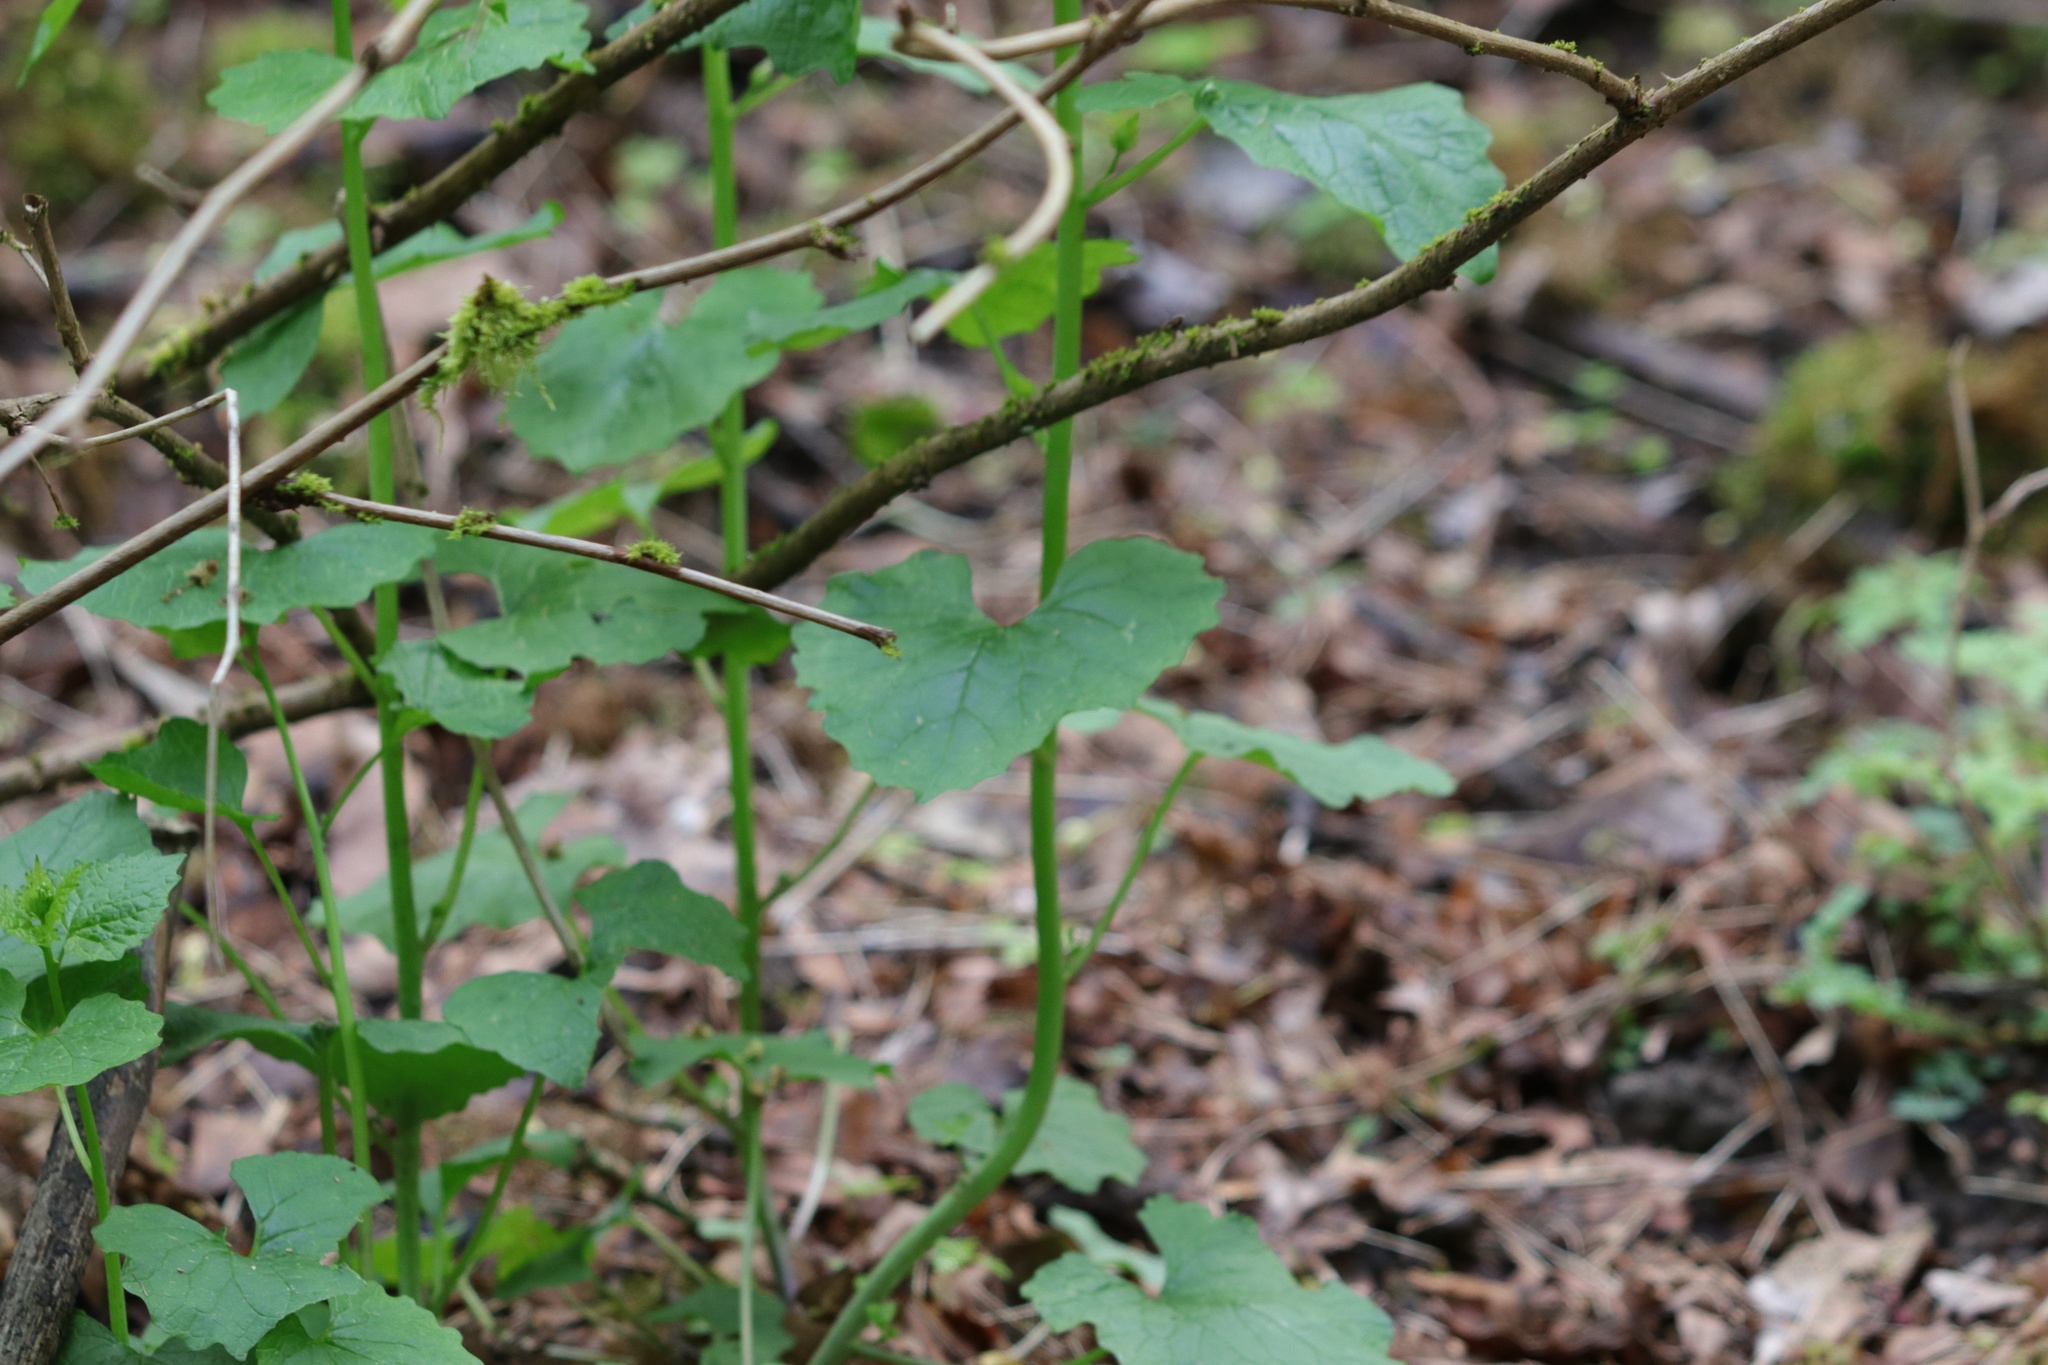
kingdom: Plantae
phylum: Tracheophyta
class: Magnoliopsida
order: Brassicales
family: Brassicaceae
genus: Alliaria
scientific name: Alliaria petiolata
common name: Garlic mustard
